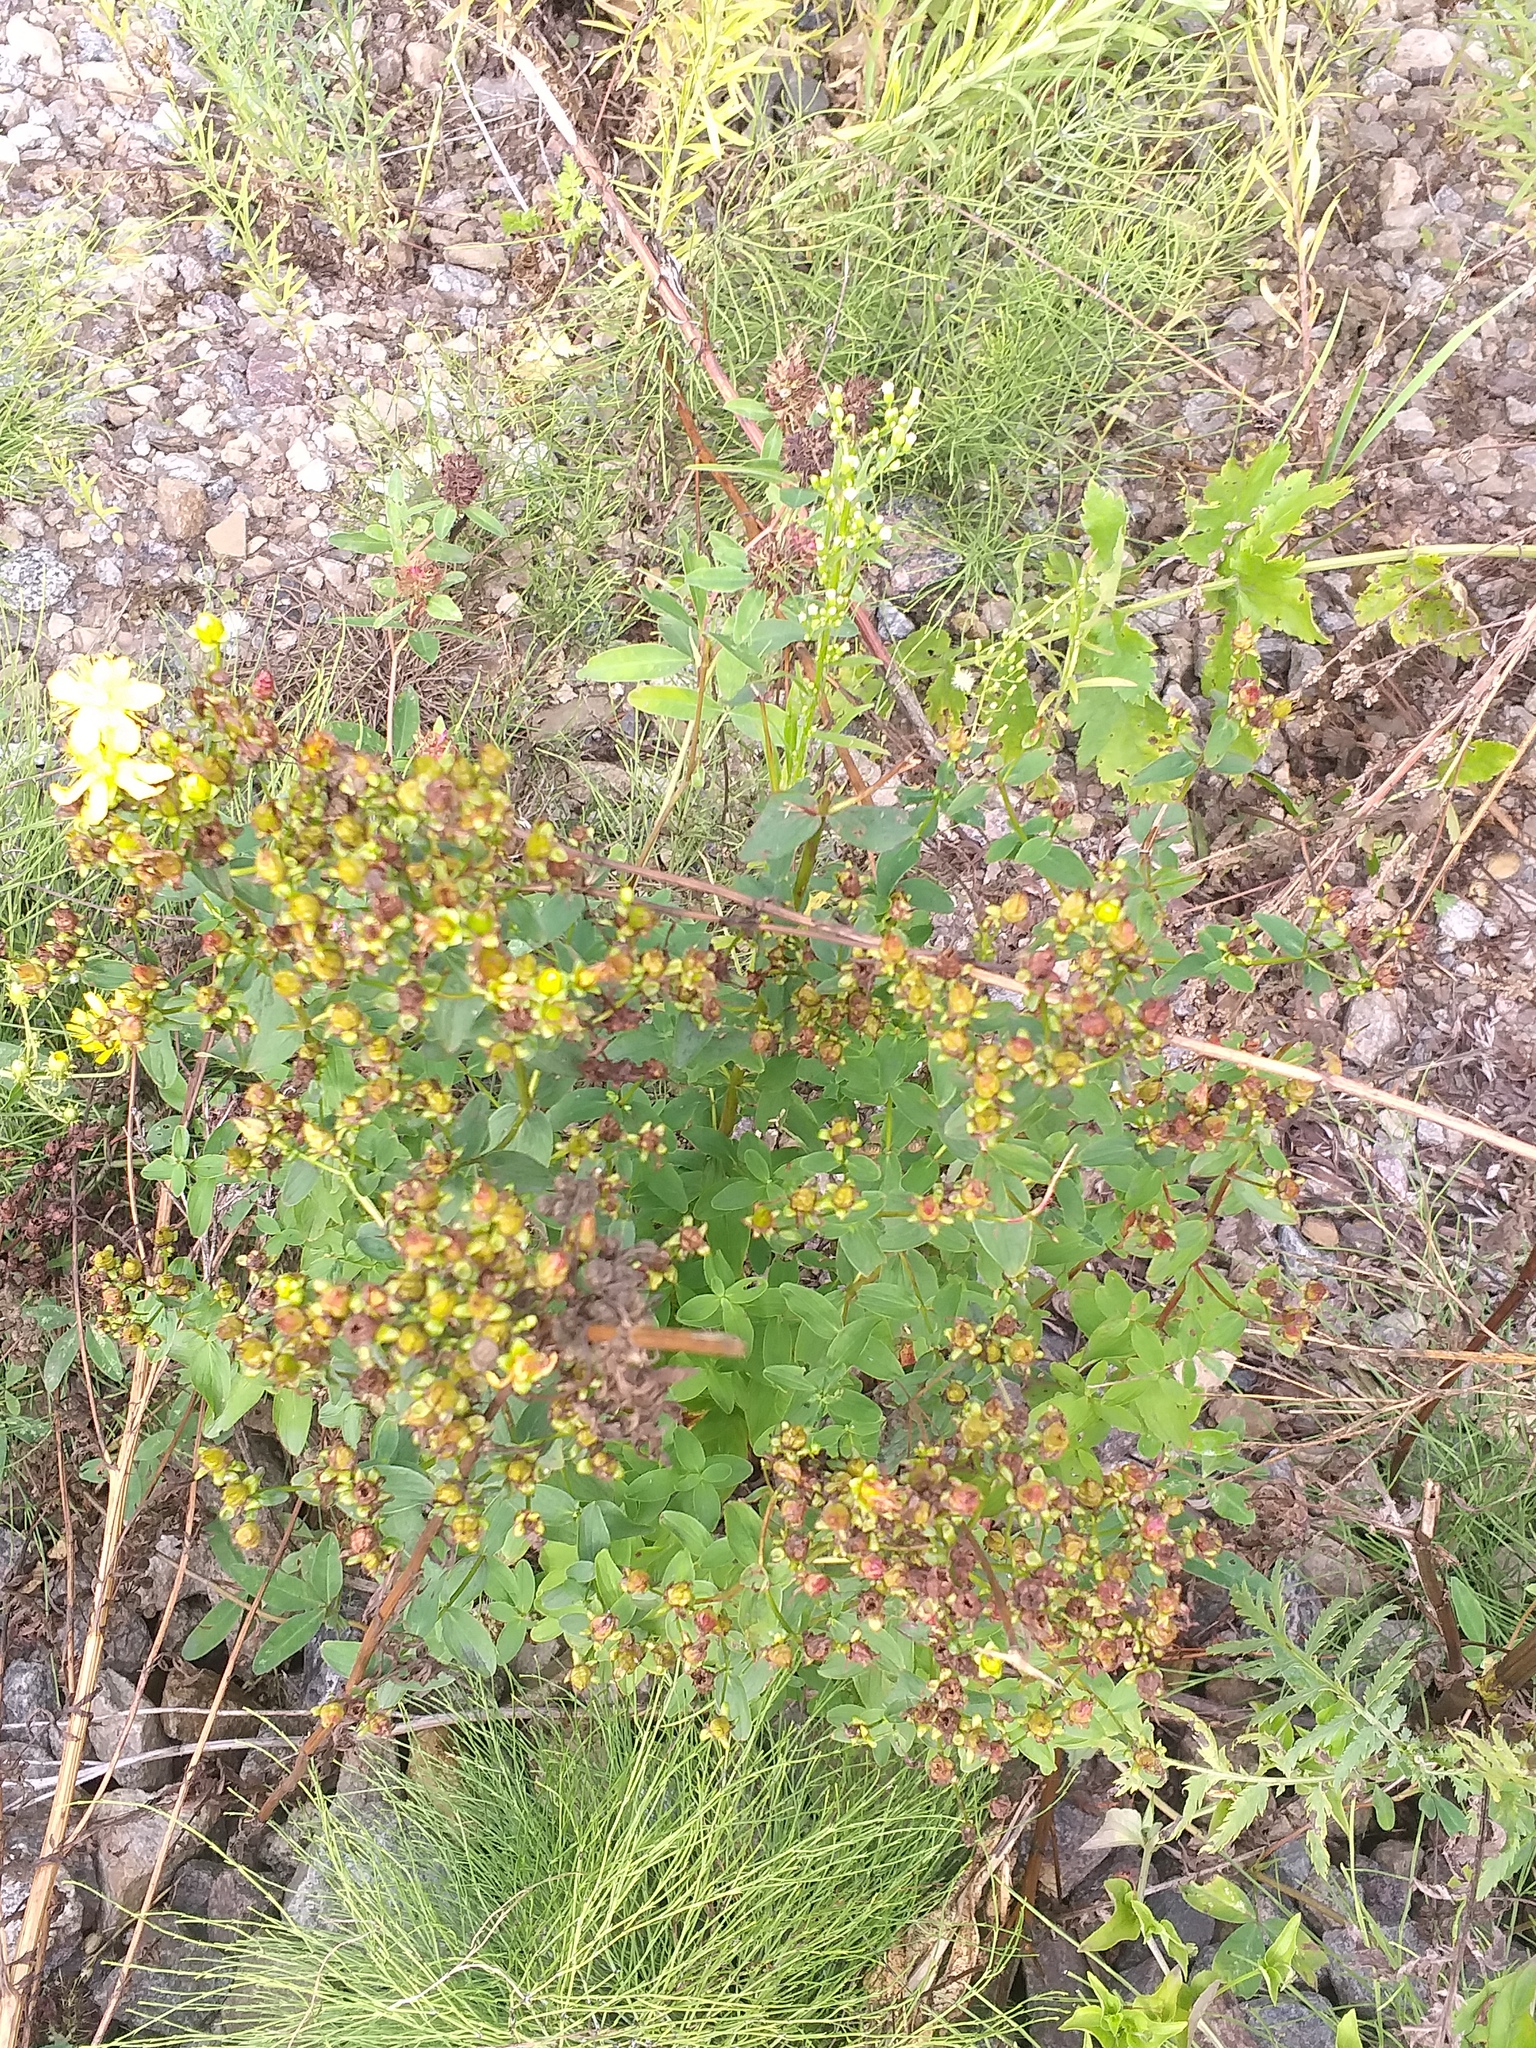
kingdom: Plantae
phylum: Tracheophyta
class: Magnoliopsida
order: Malpighiales
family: Hypericaceae
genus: Hypericum
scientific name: Hypericum maculatum
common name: Imperforate st. john's-wort
